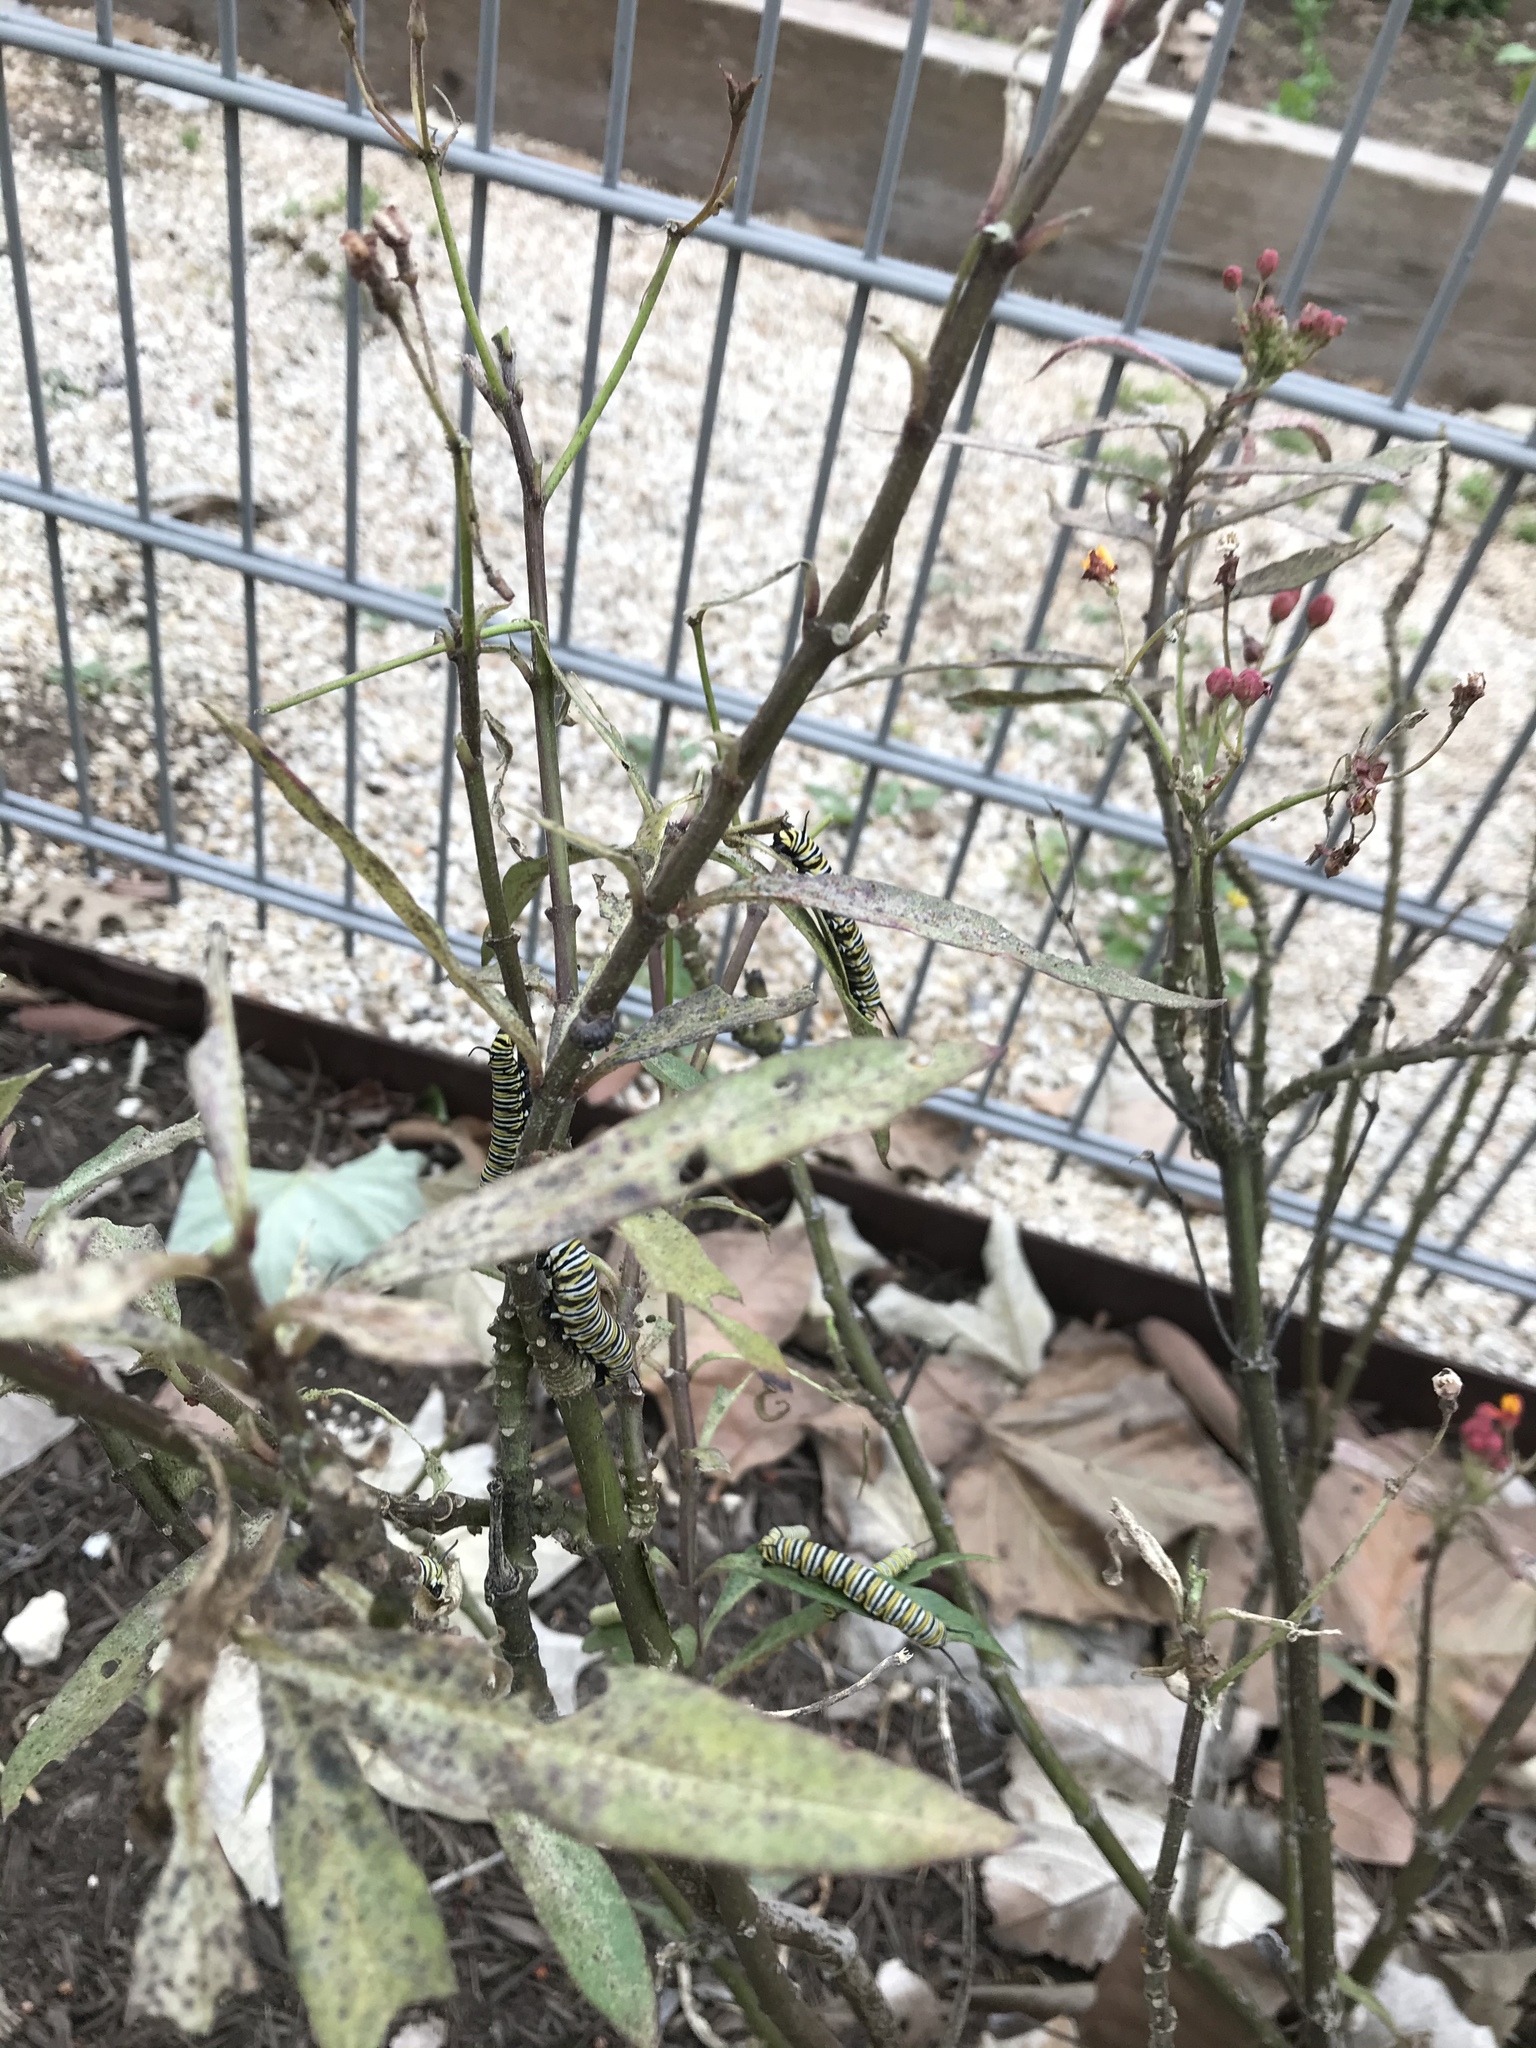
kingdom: Animalia
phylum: Arthropoda
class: Insecta
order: Lepidoptera
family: Nymphalidae
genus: Danaus
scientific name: Danaus plexippus
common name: Monarch
